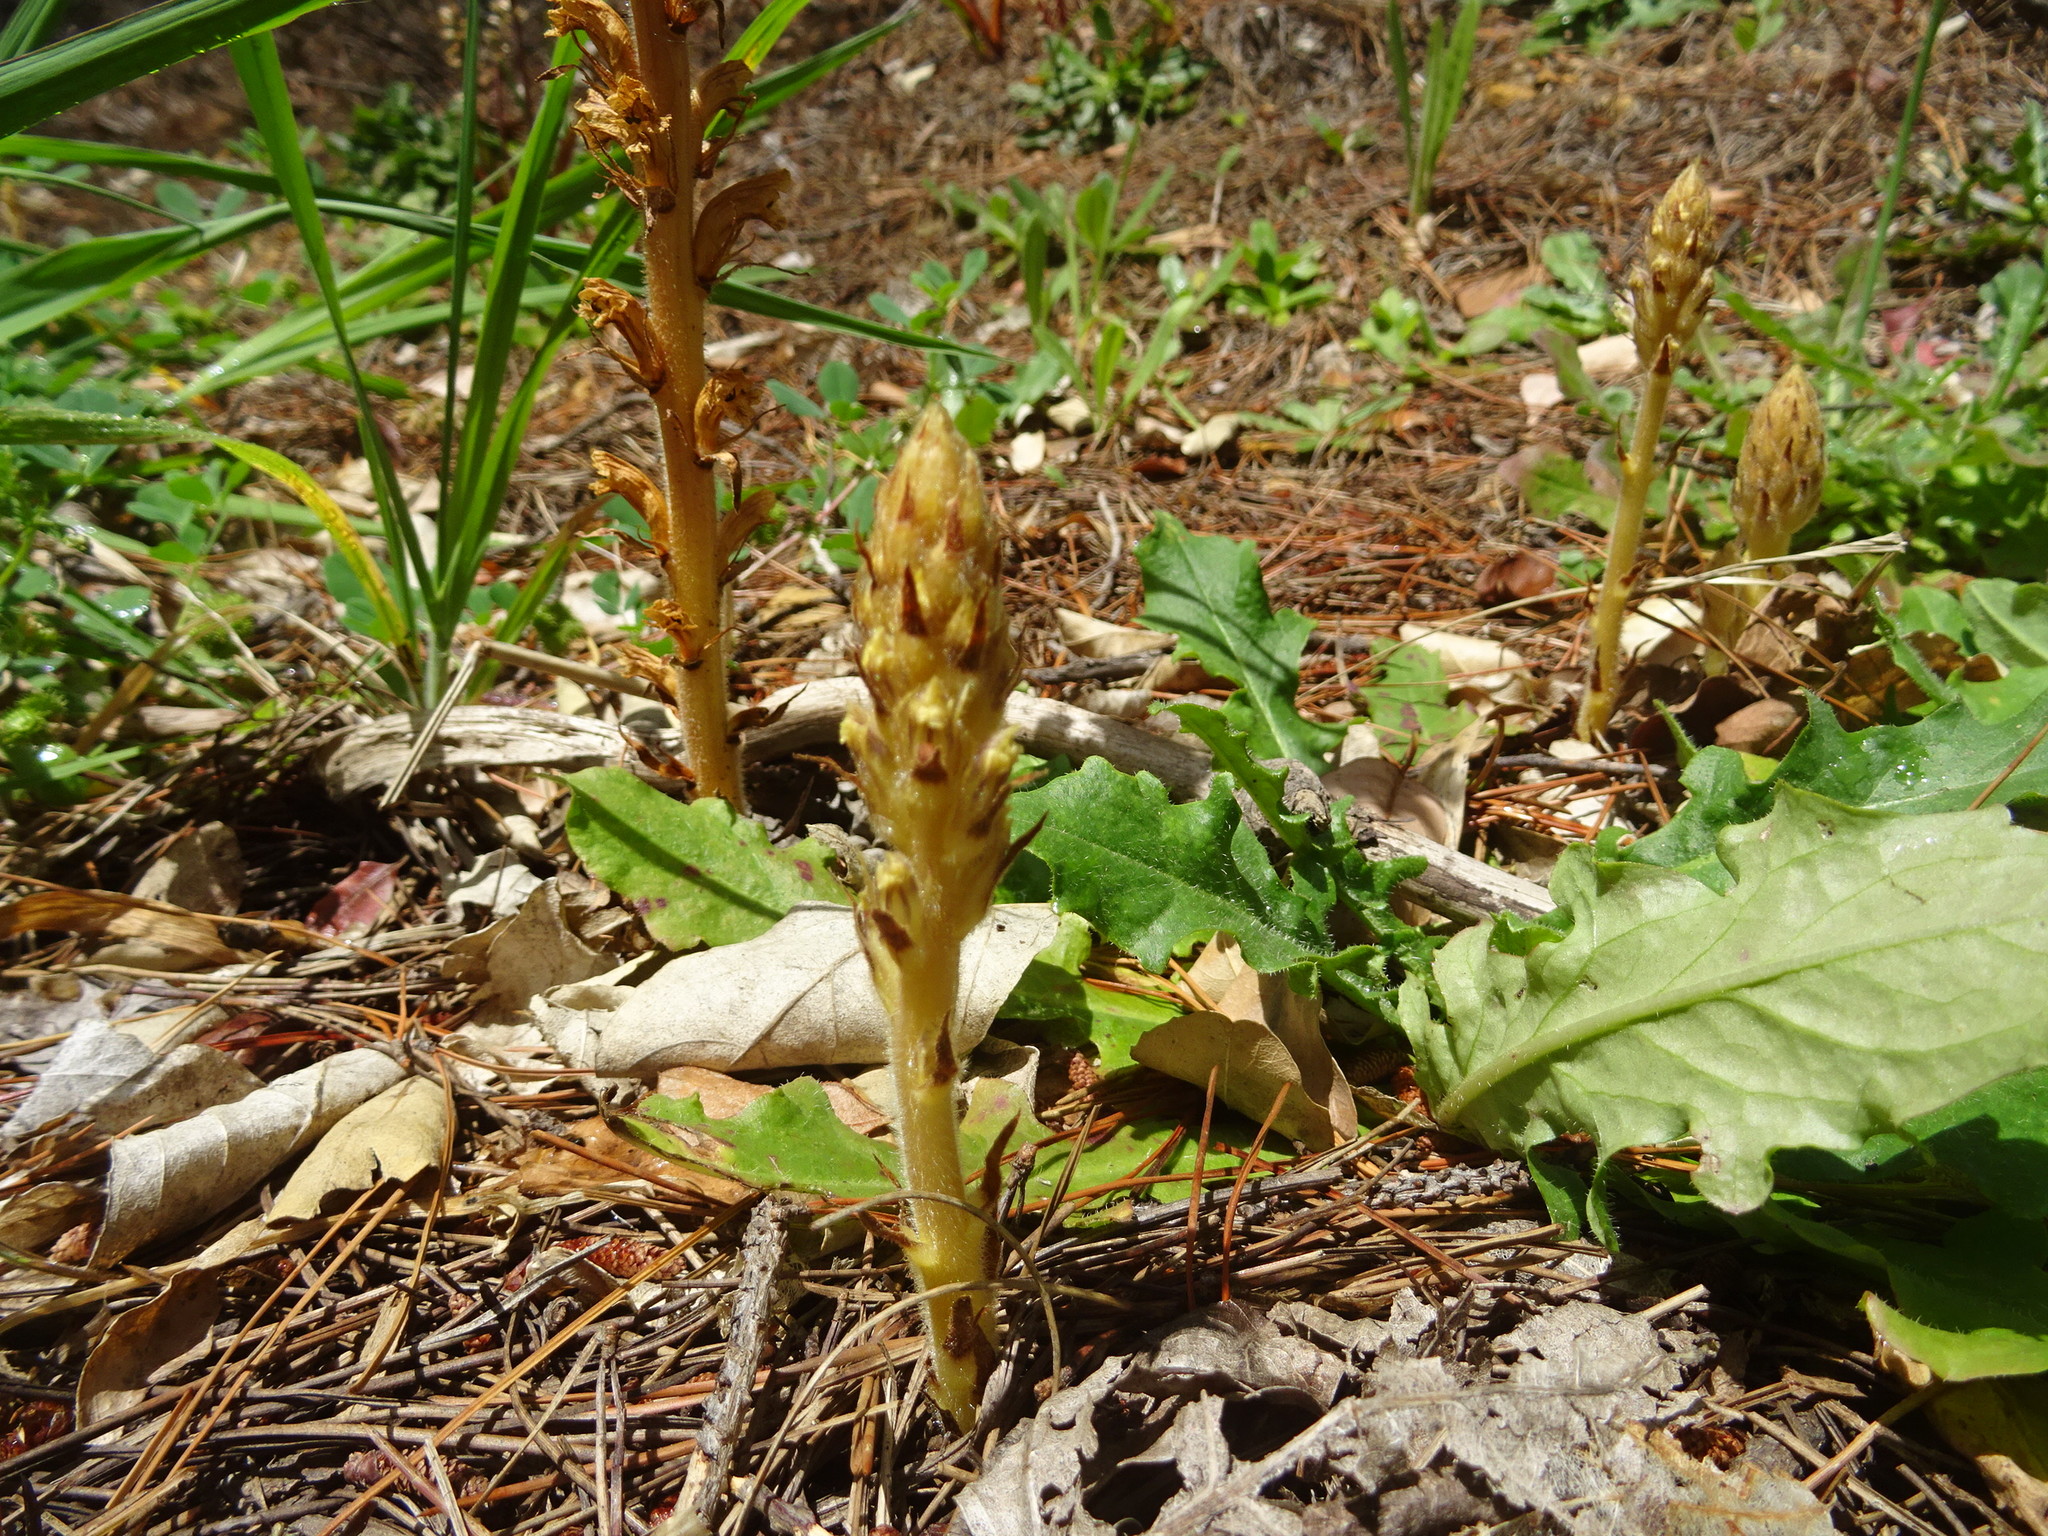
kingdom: Plantae
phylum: Tracheophyta
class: Magnoliopsida
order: Lamiales
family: Orobanchaceae
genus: Orobanche
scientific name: Orobanche minor
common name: Common broomrape
